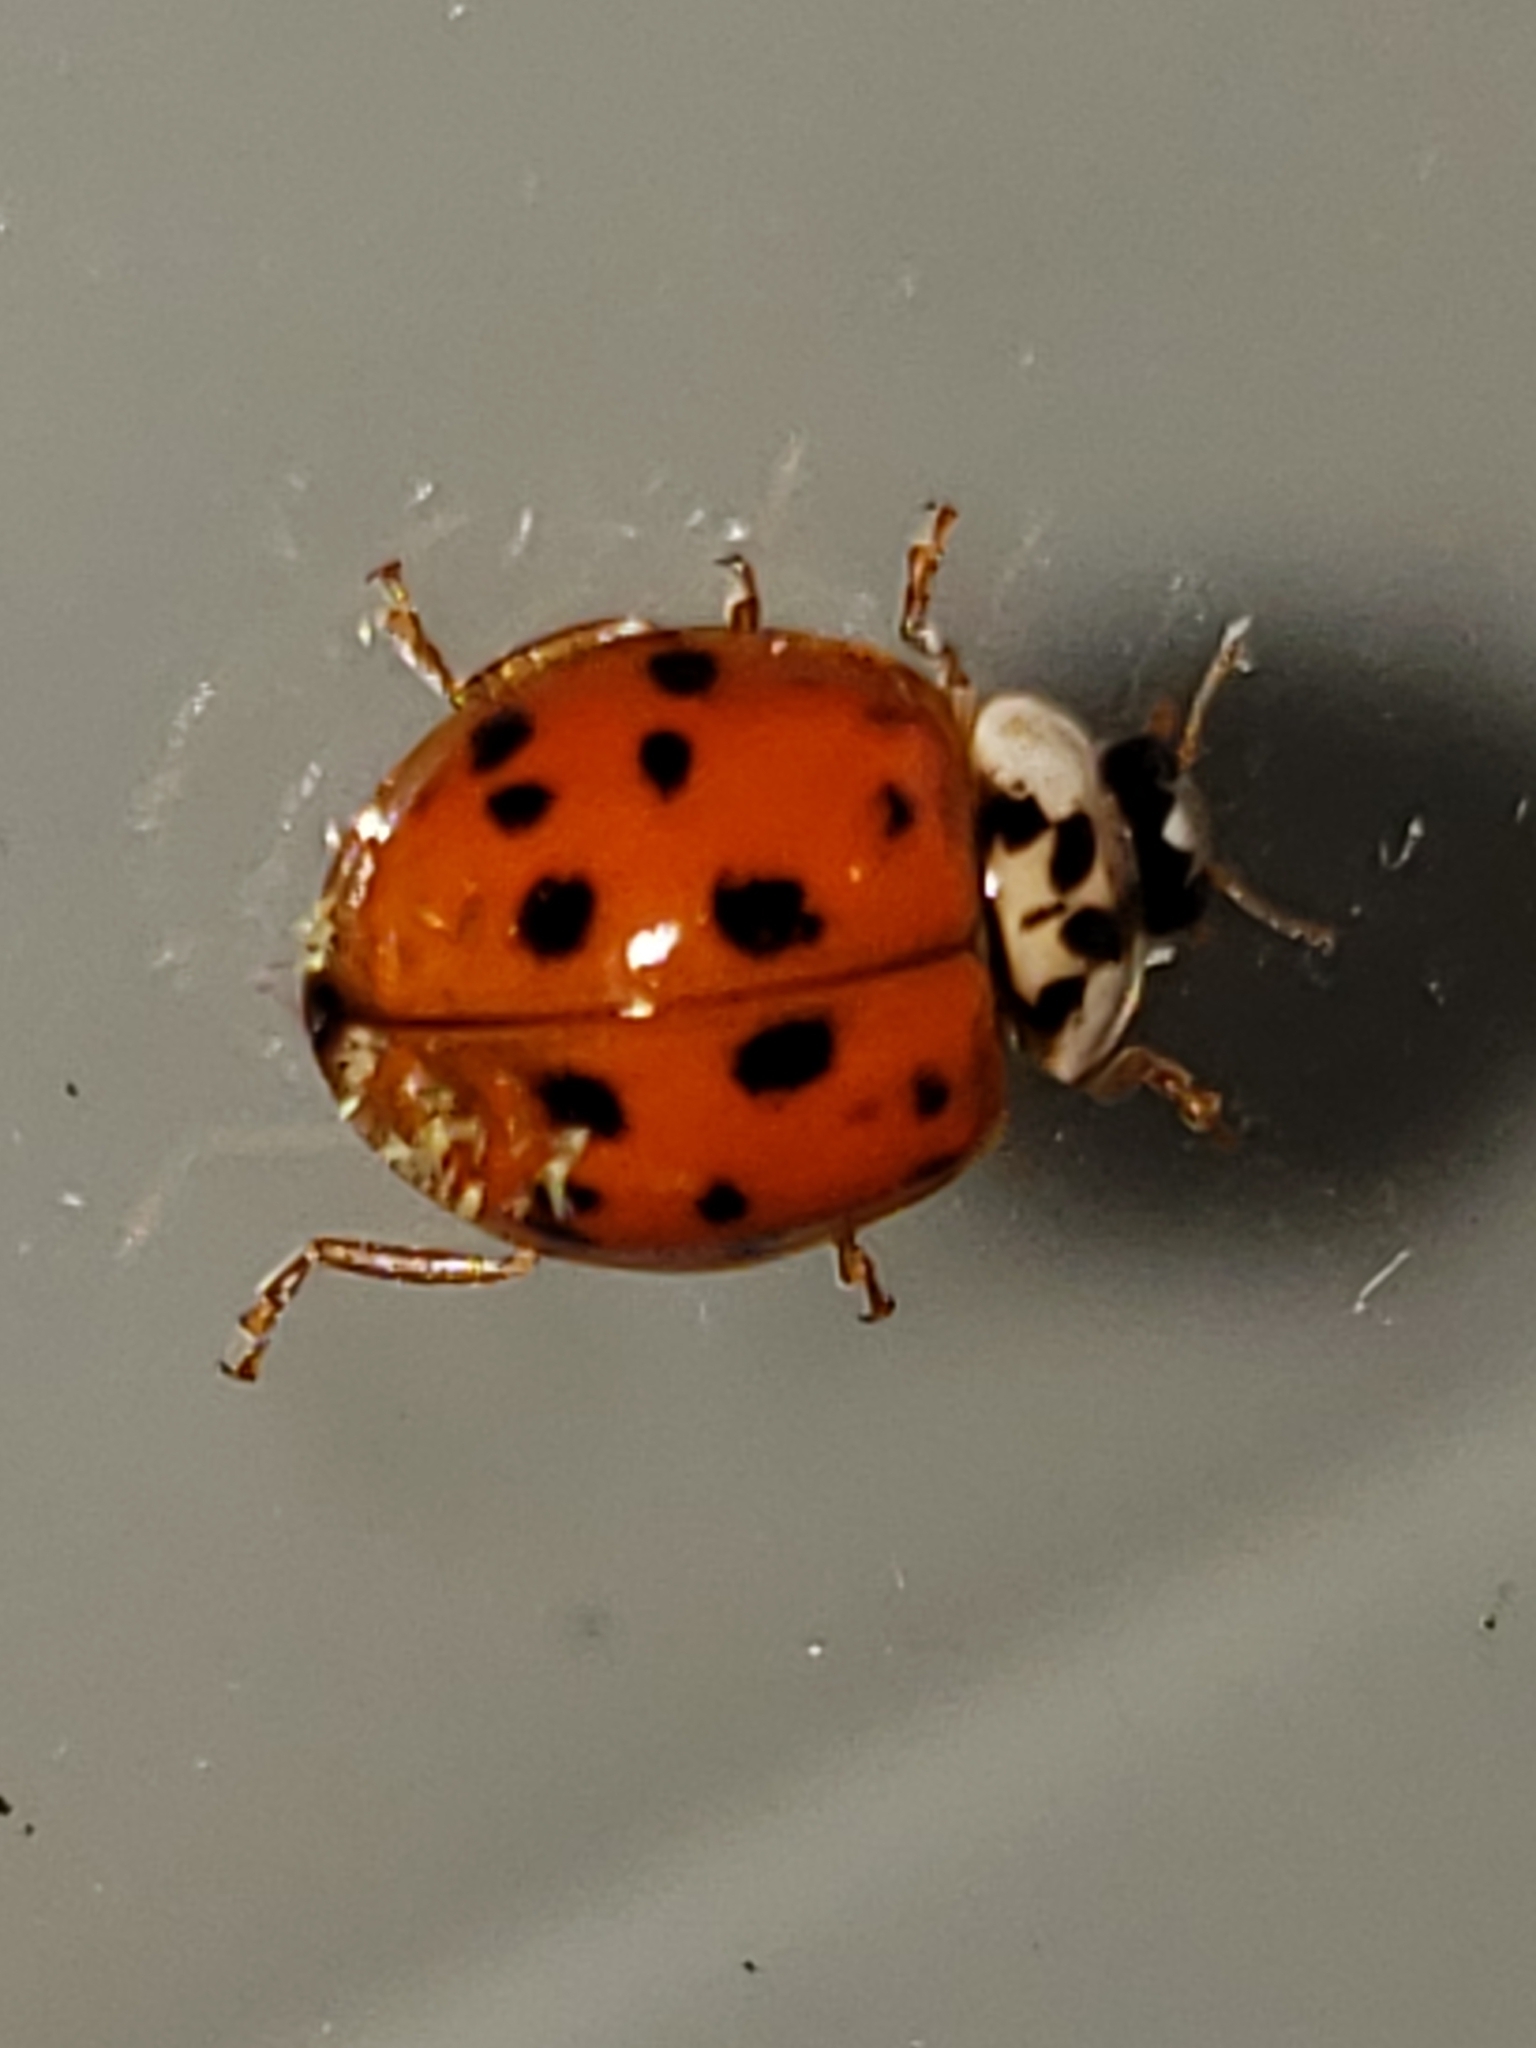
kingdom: Animalia
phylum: Arthropoda
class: Insecta
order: Coleoptera
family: Coccinellidae
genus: Harmonia
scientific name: Harmonia axyridis
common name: Harlequin ladybird
